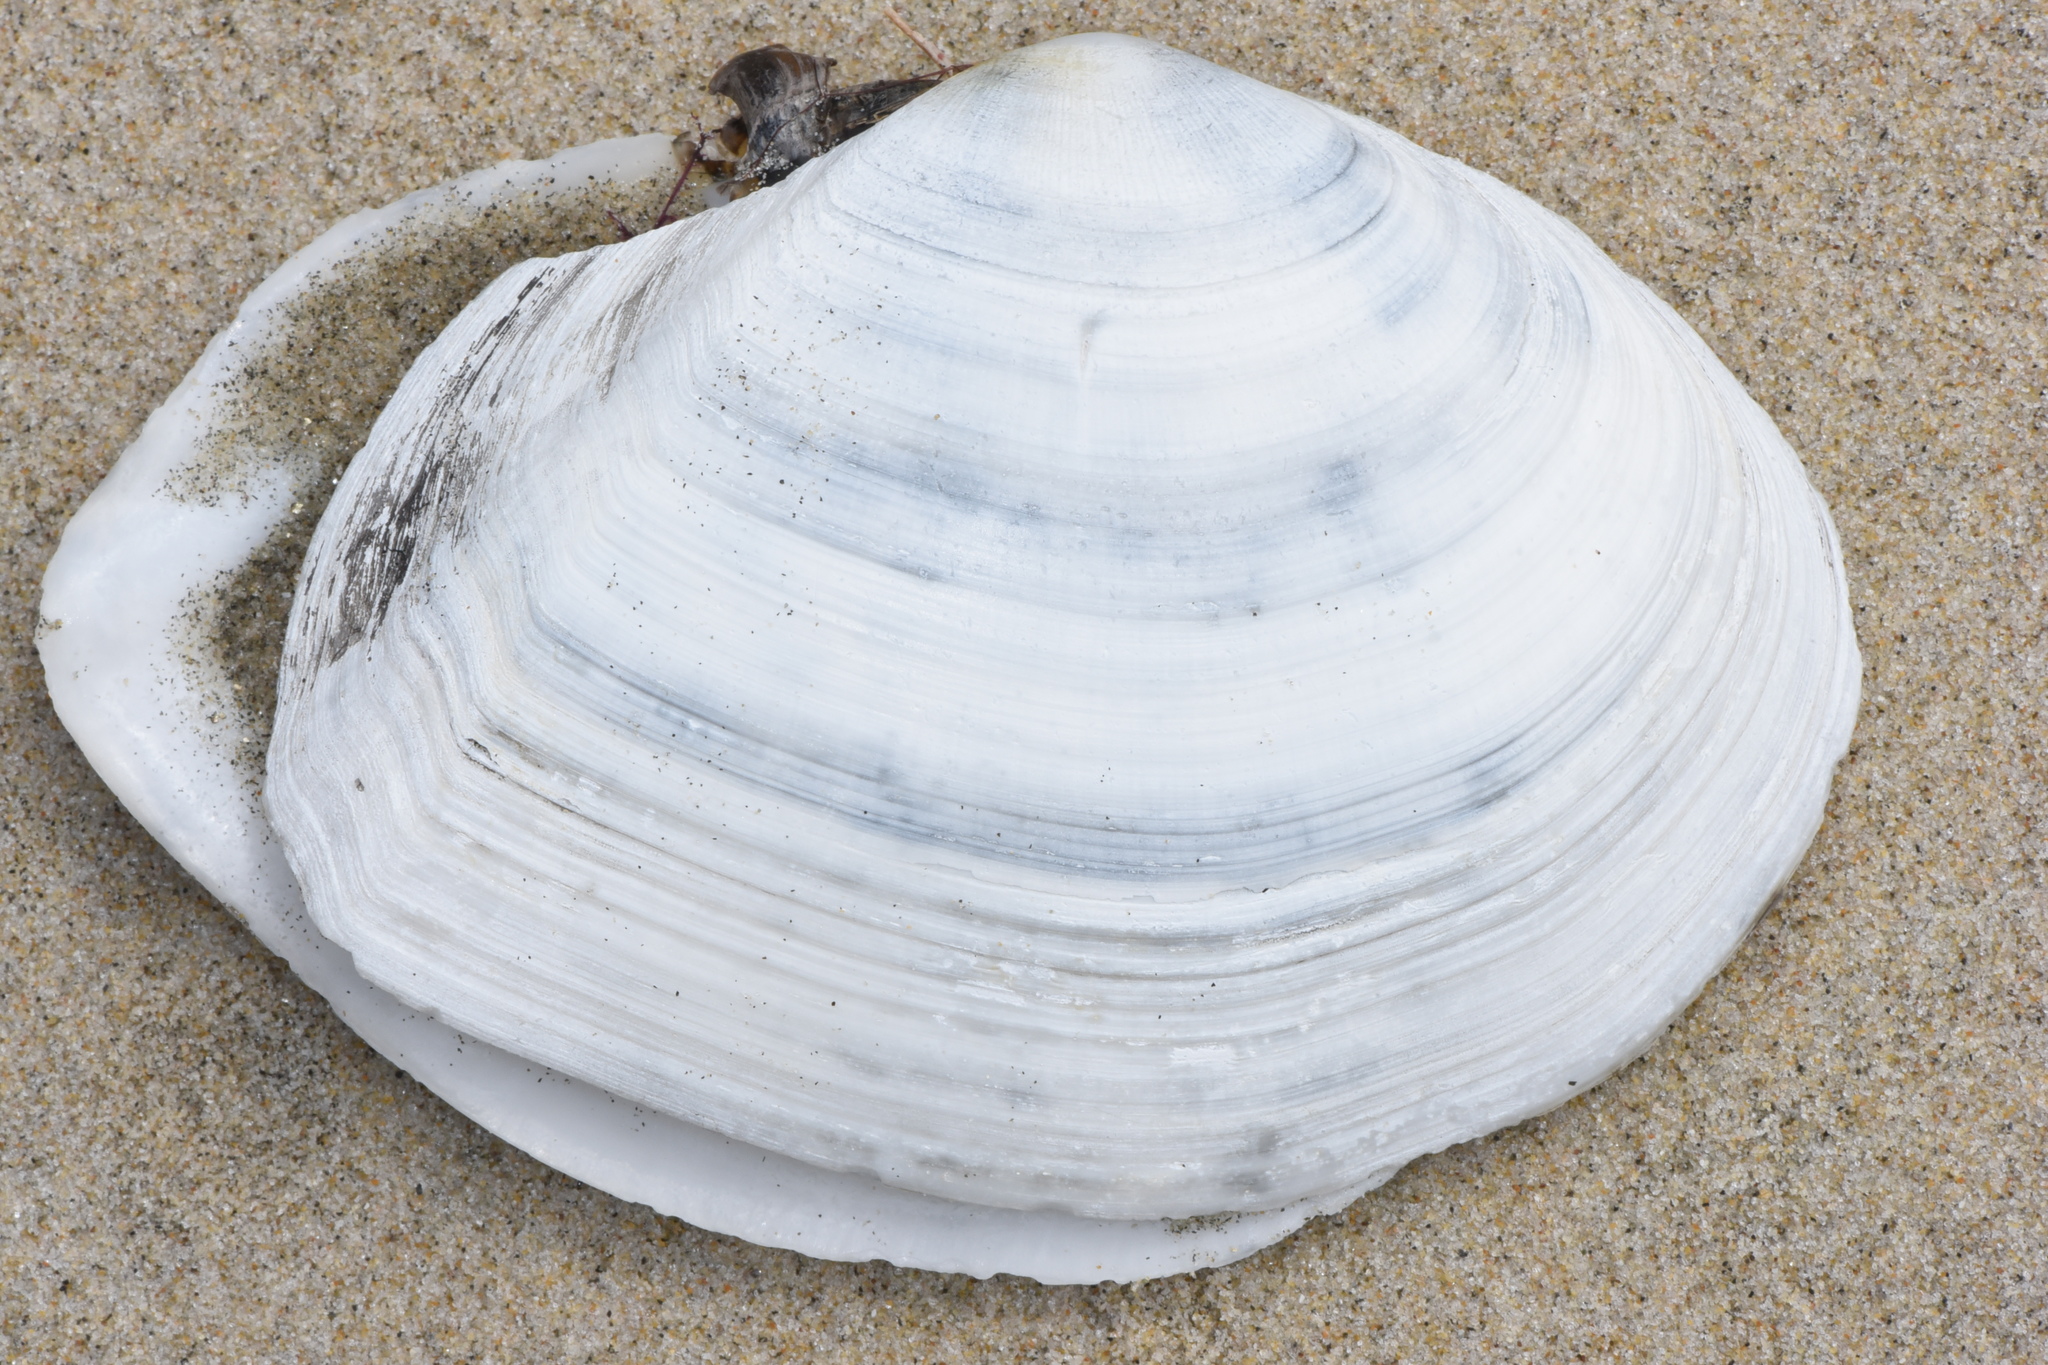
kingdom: Animalia
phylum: Mollusca
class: Bivalvia
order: Cardiida
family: Tellinidae
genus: Rexithaerus
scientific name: Rexithaerus secta
